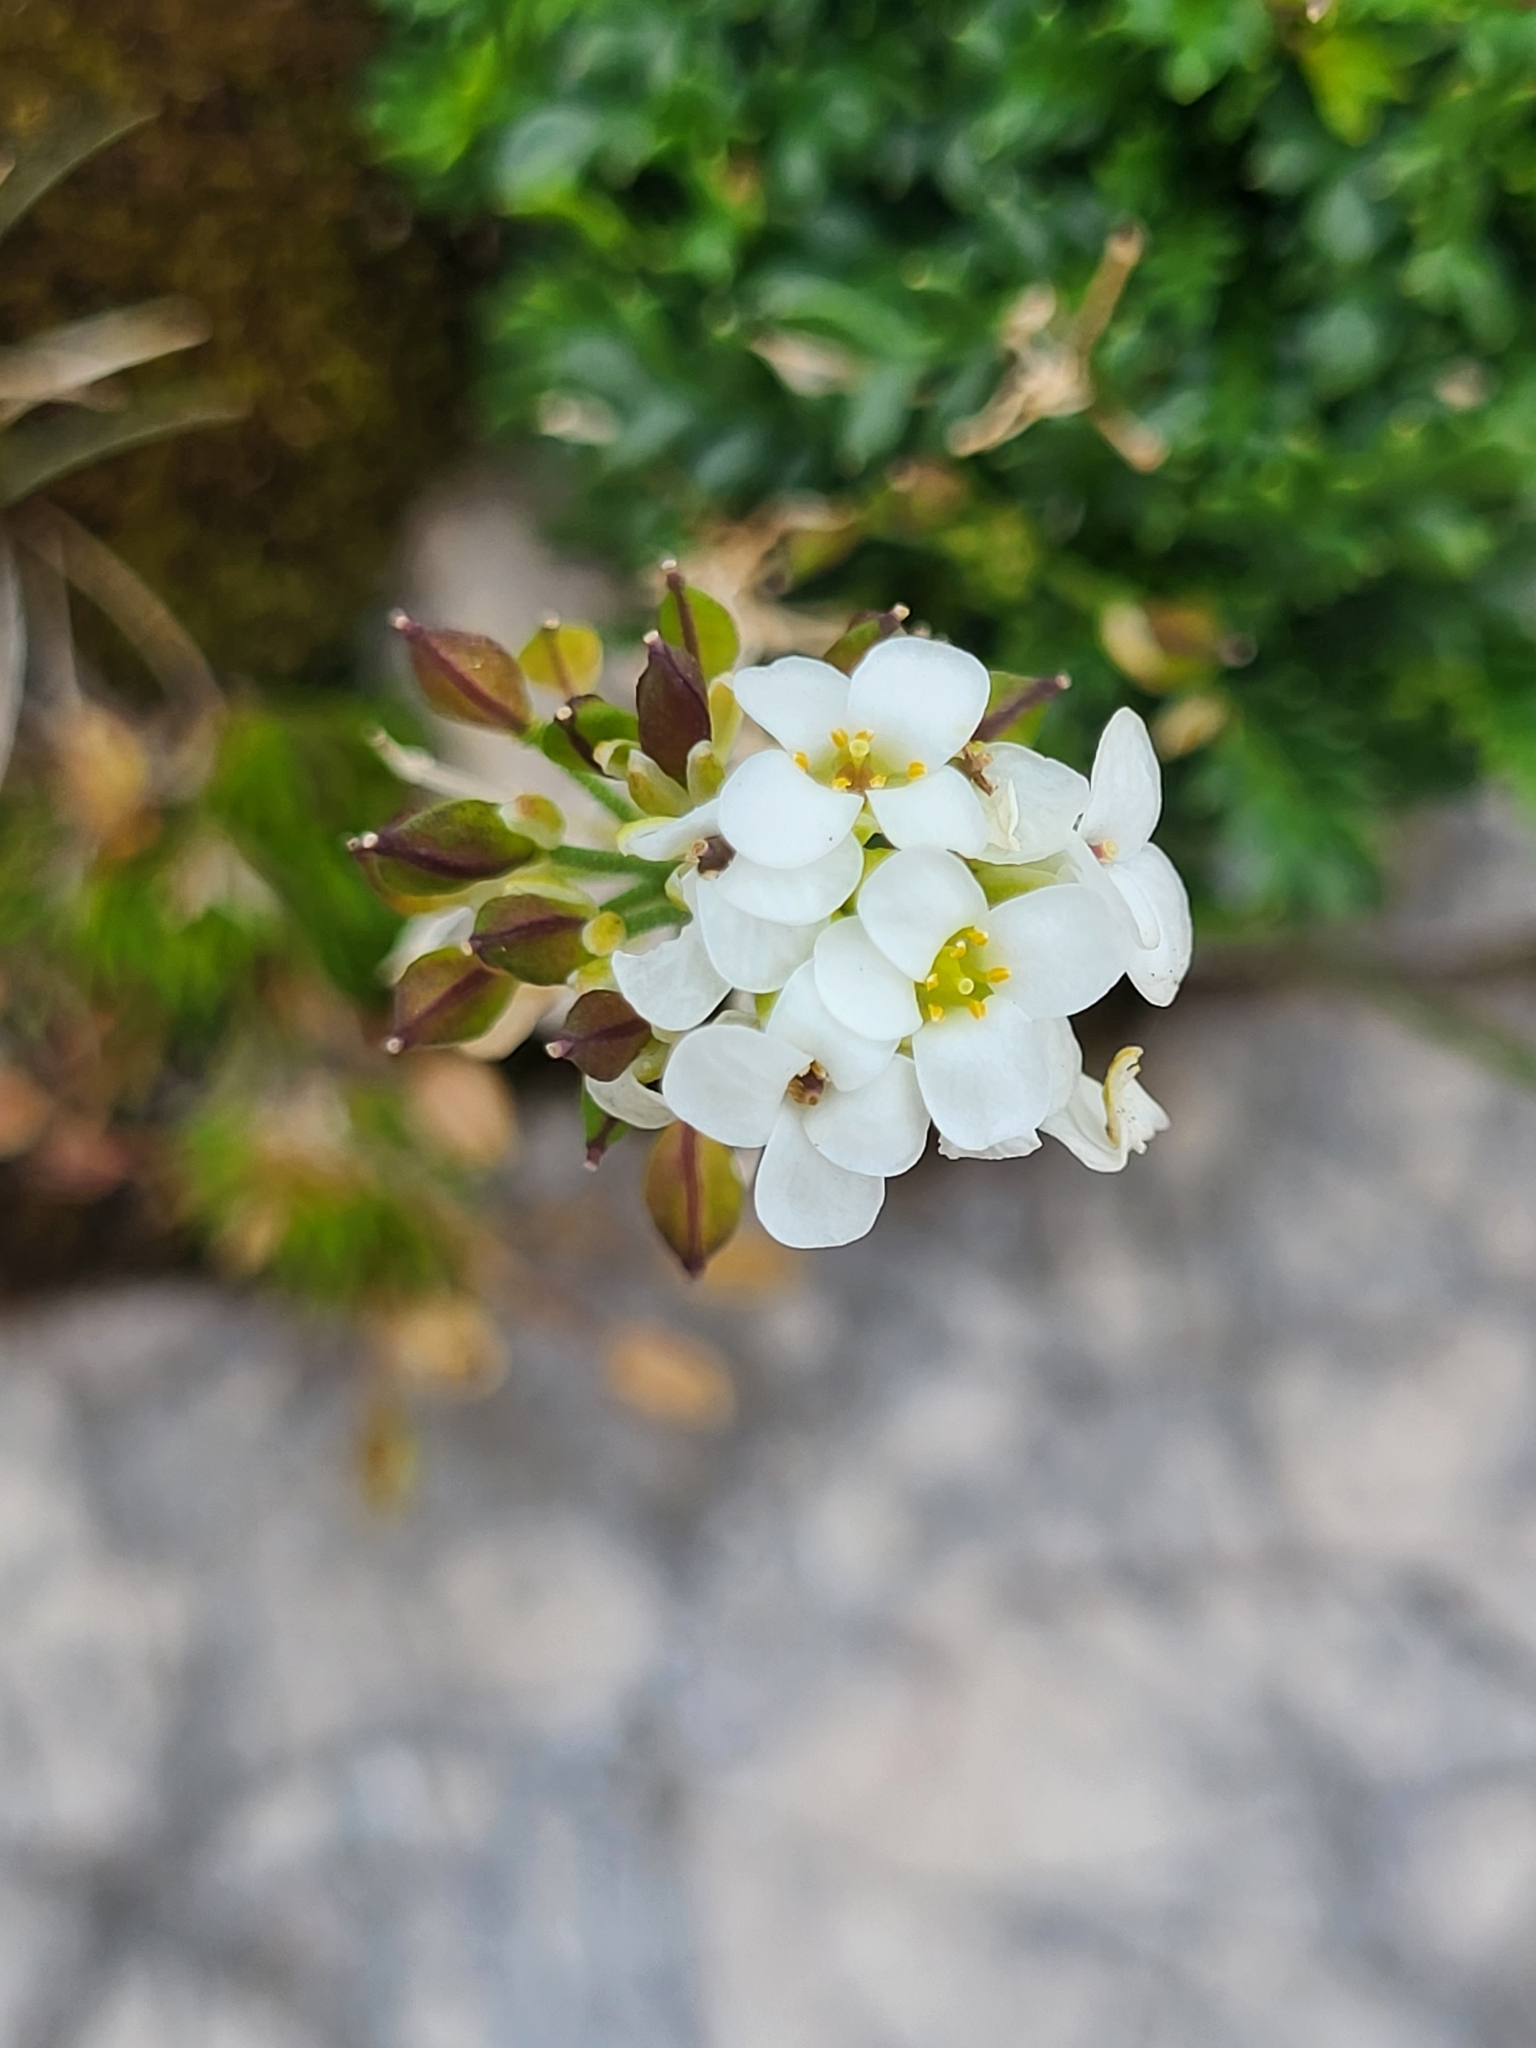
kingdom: Plantae
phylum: Tracheophyta
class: Magnoliopsida
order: Brassicales
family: Brassicaceae
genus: Hornungia
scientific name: Hornungia alpina
